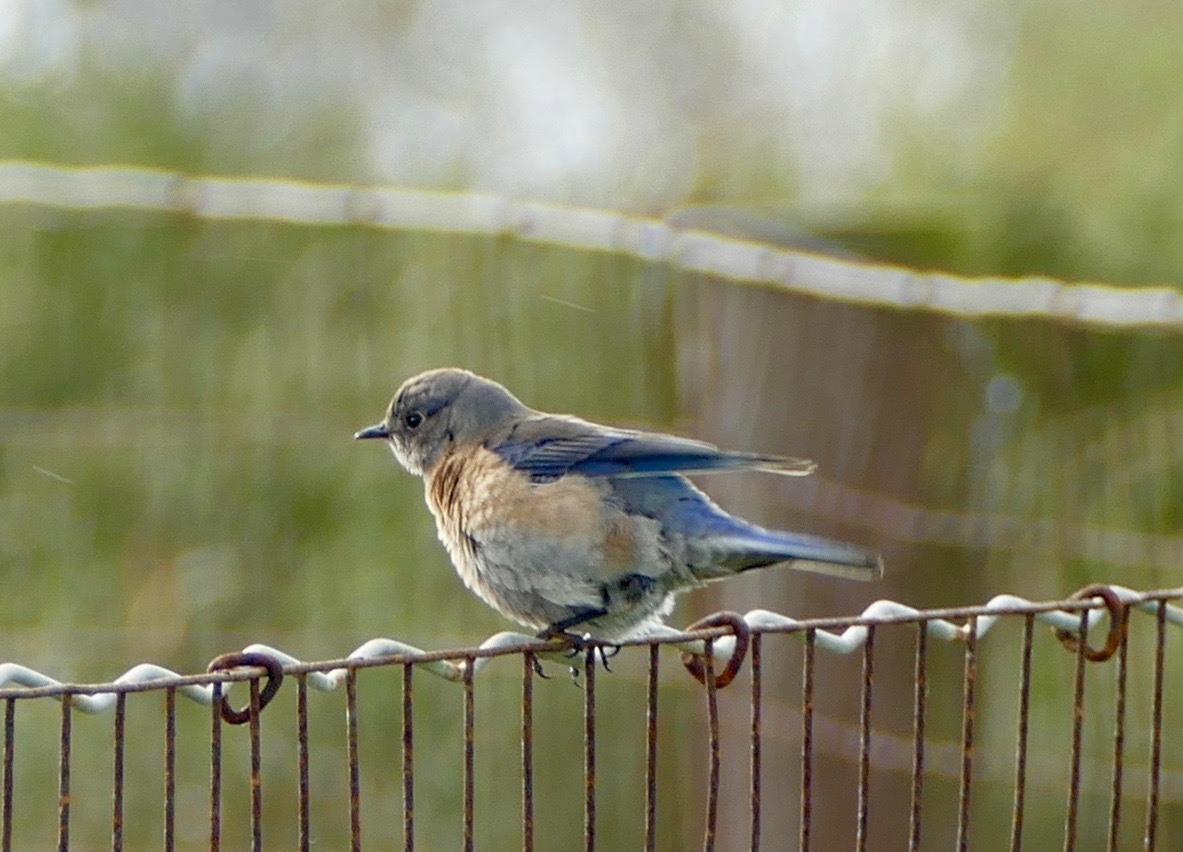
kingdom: Animalia
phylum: Chordata
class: Aves
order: Passeriformes
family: Turdidae
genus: Sialia
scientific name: Sialia mexicana
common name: Western bluebird
